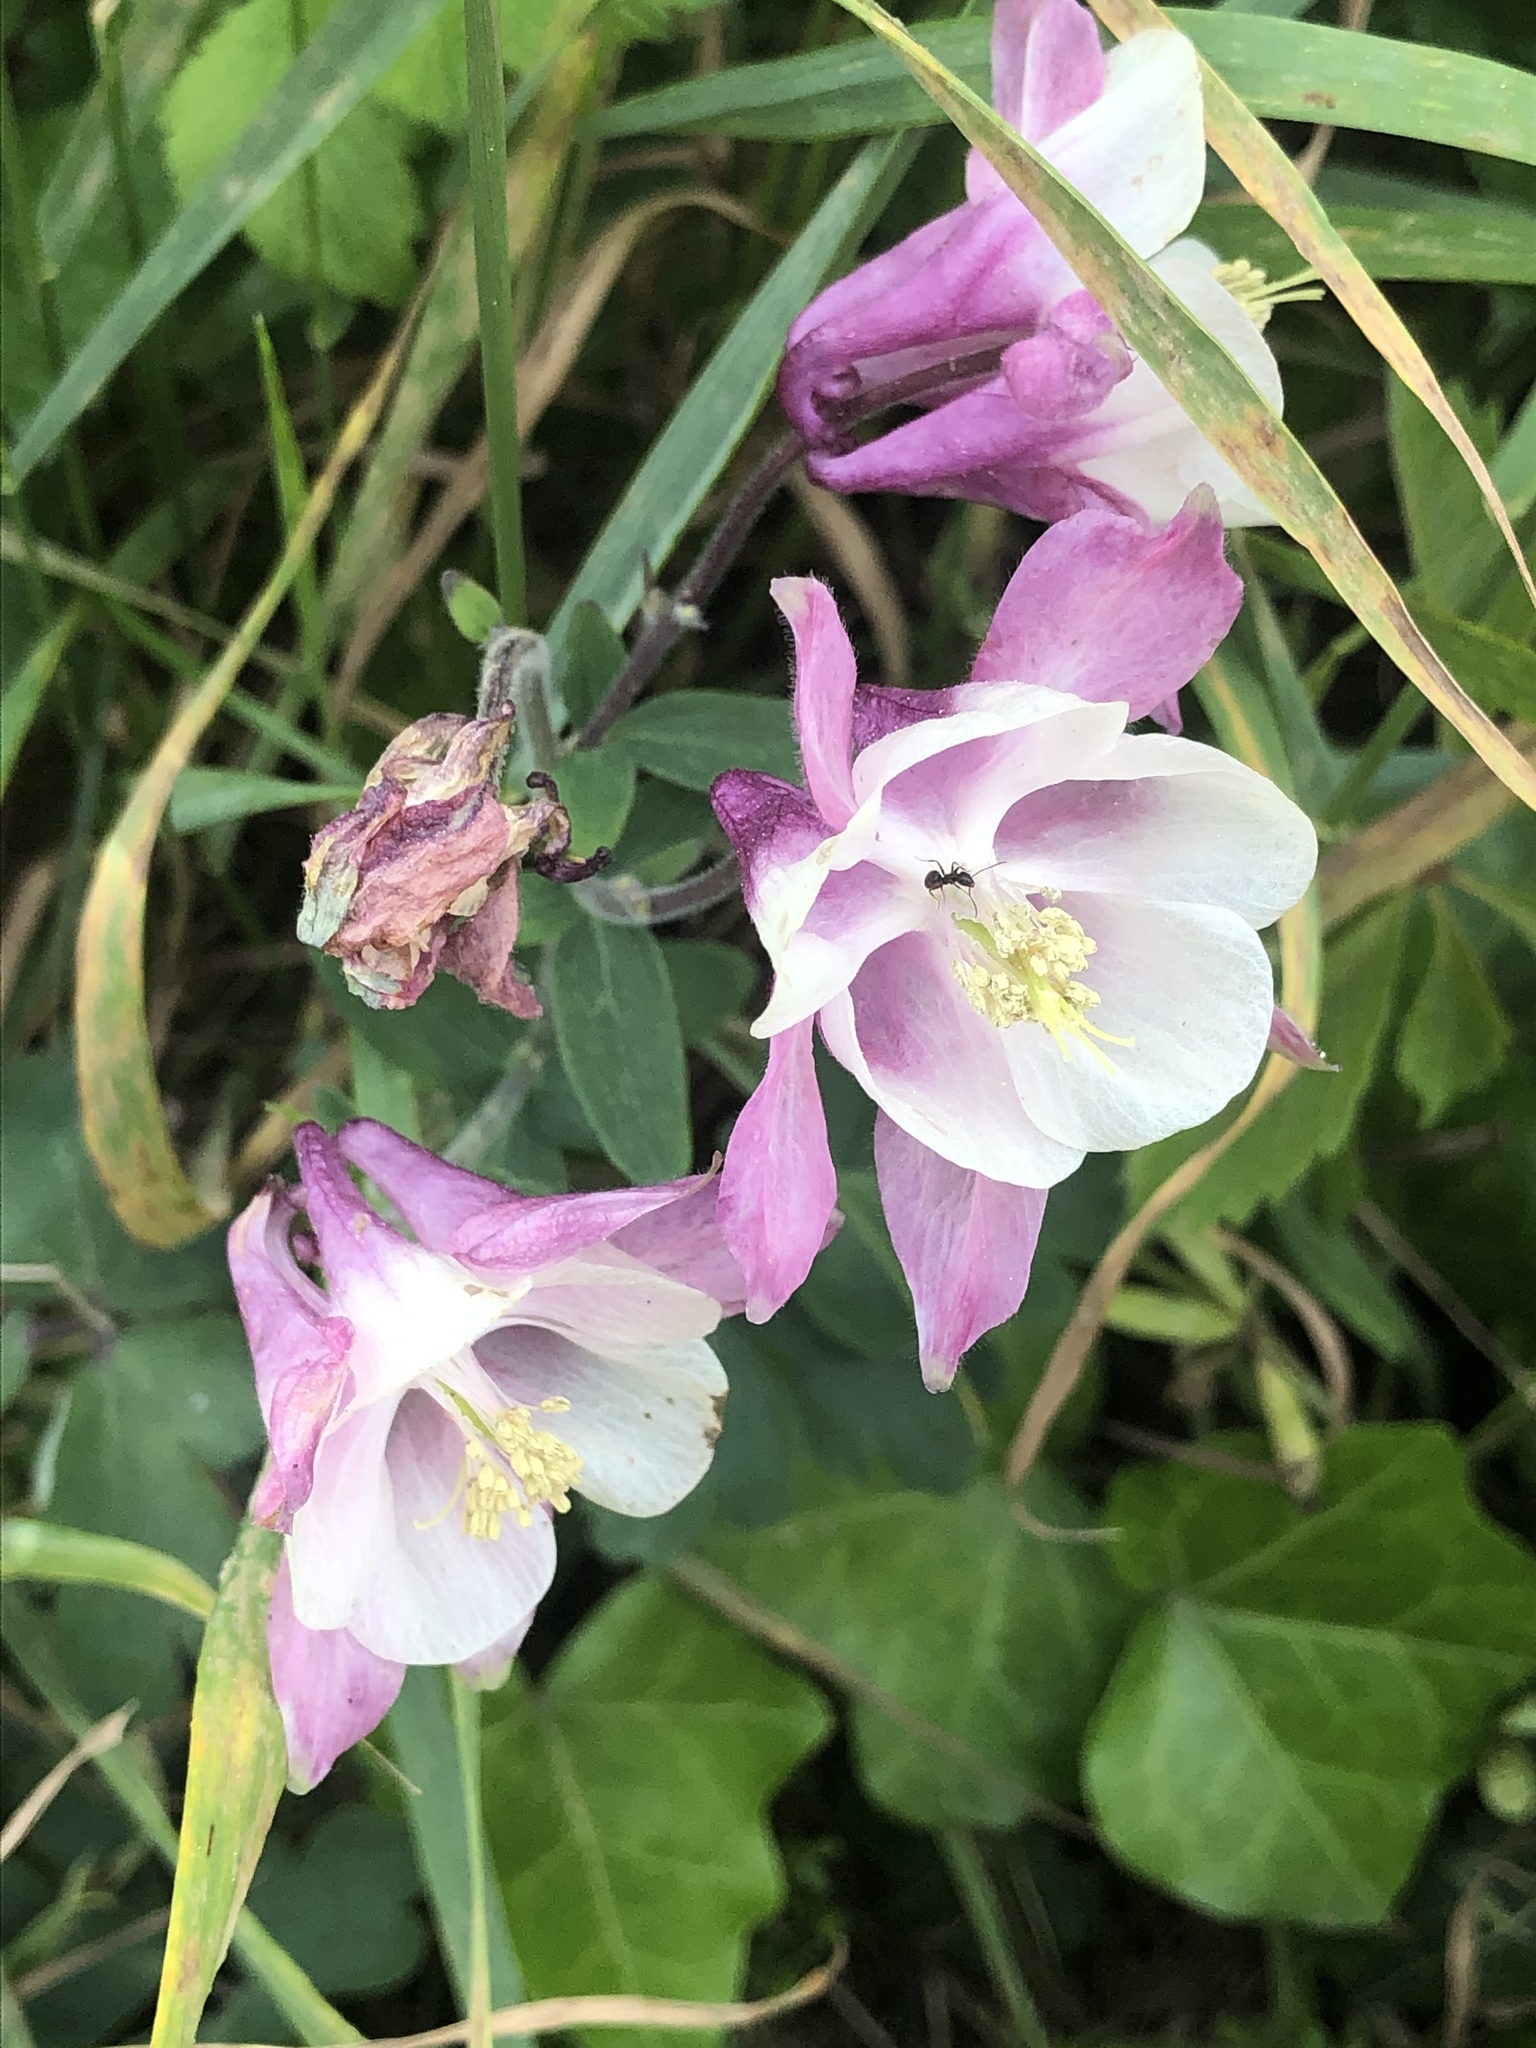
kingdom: Plantae
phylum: Tracheophyta
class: Magnoliopsida
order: Ranunculales
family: Ranunculaceae
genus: Aquilegia
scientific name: Aquilegia vulgaris
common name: Columbine
